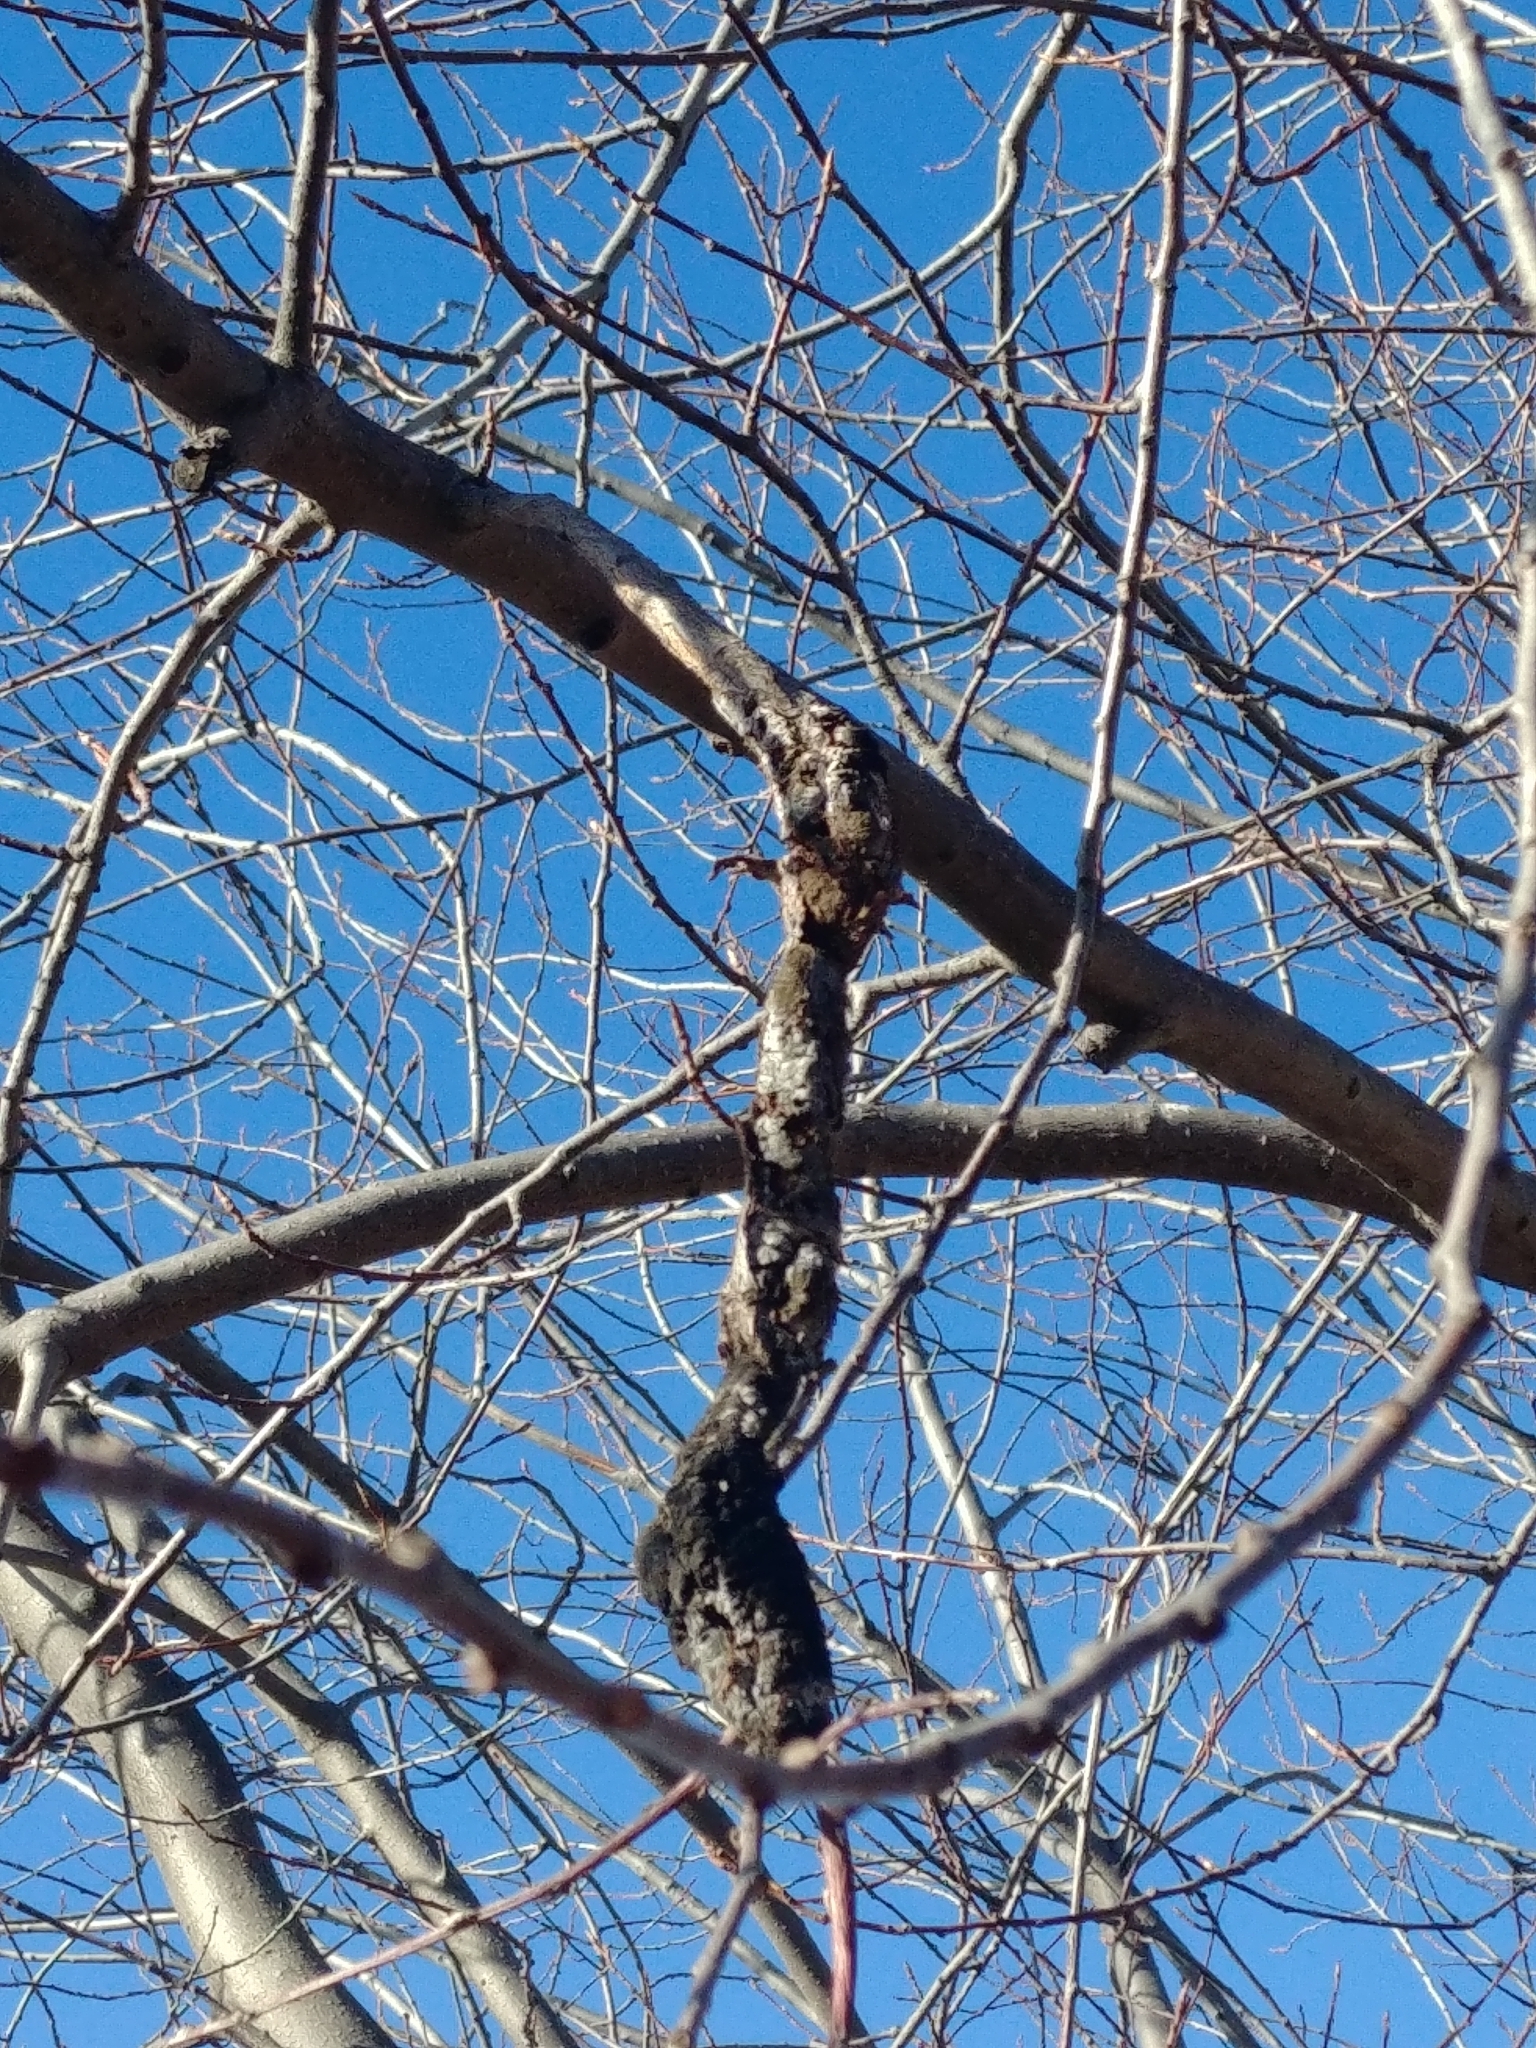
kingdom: Fungi
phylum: Ascomycota
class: Dothideomycetes
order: Venturiales
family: Venturiaceae
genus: Apiosporina
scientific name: Apiosporina morbosa
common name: Black knot
